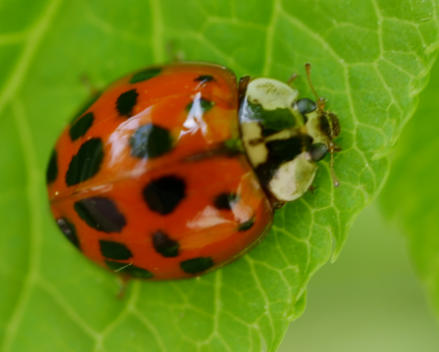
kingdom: Animalia
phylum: Arthropoda
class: Insecta
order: Coleoptera
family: Coccinellidae
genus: Harmonia
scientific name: Harmonia axyridis
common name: Harlequin ladybird
